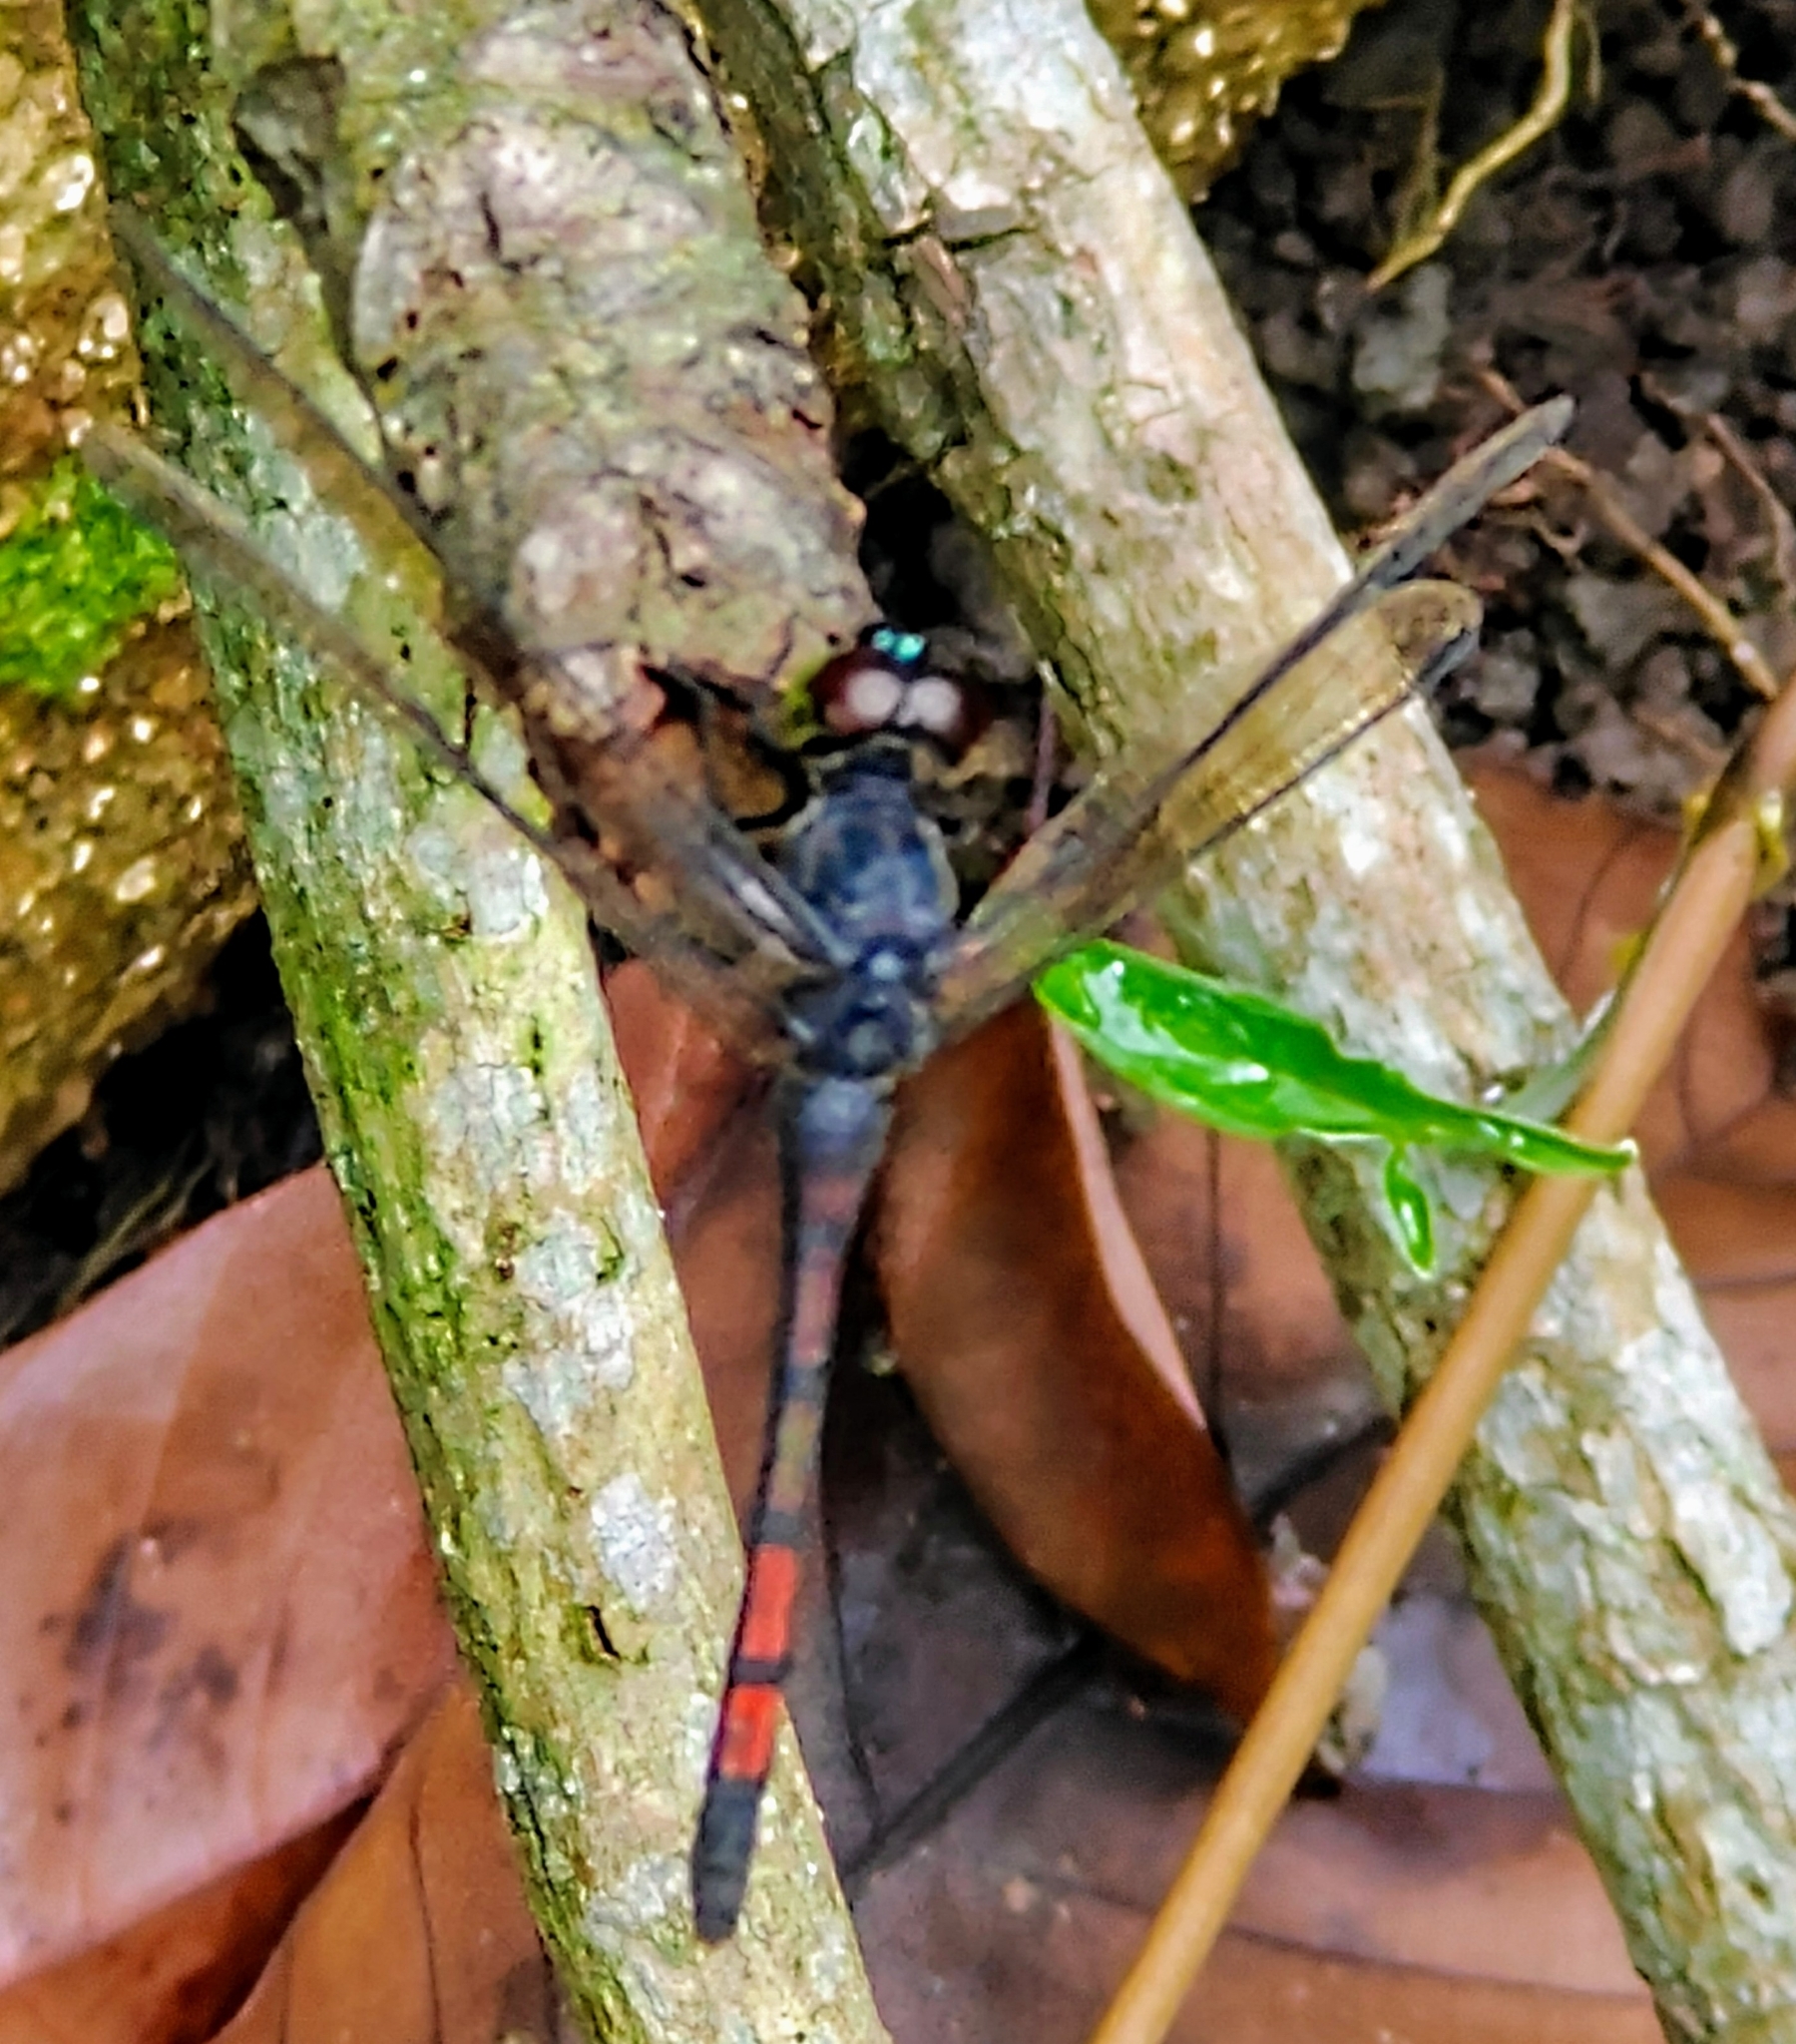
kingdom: Animalia
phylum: Arthropoda
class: Insecta
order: Odonata
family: Libellulidae
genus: Agrionoptera
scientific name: Agrionoptera insignis
